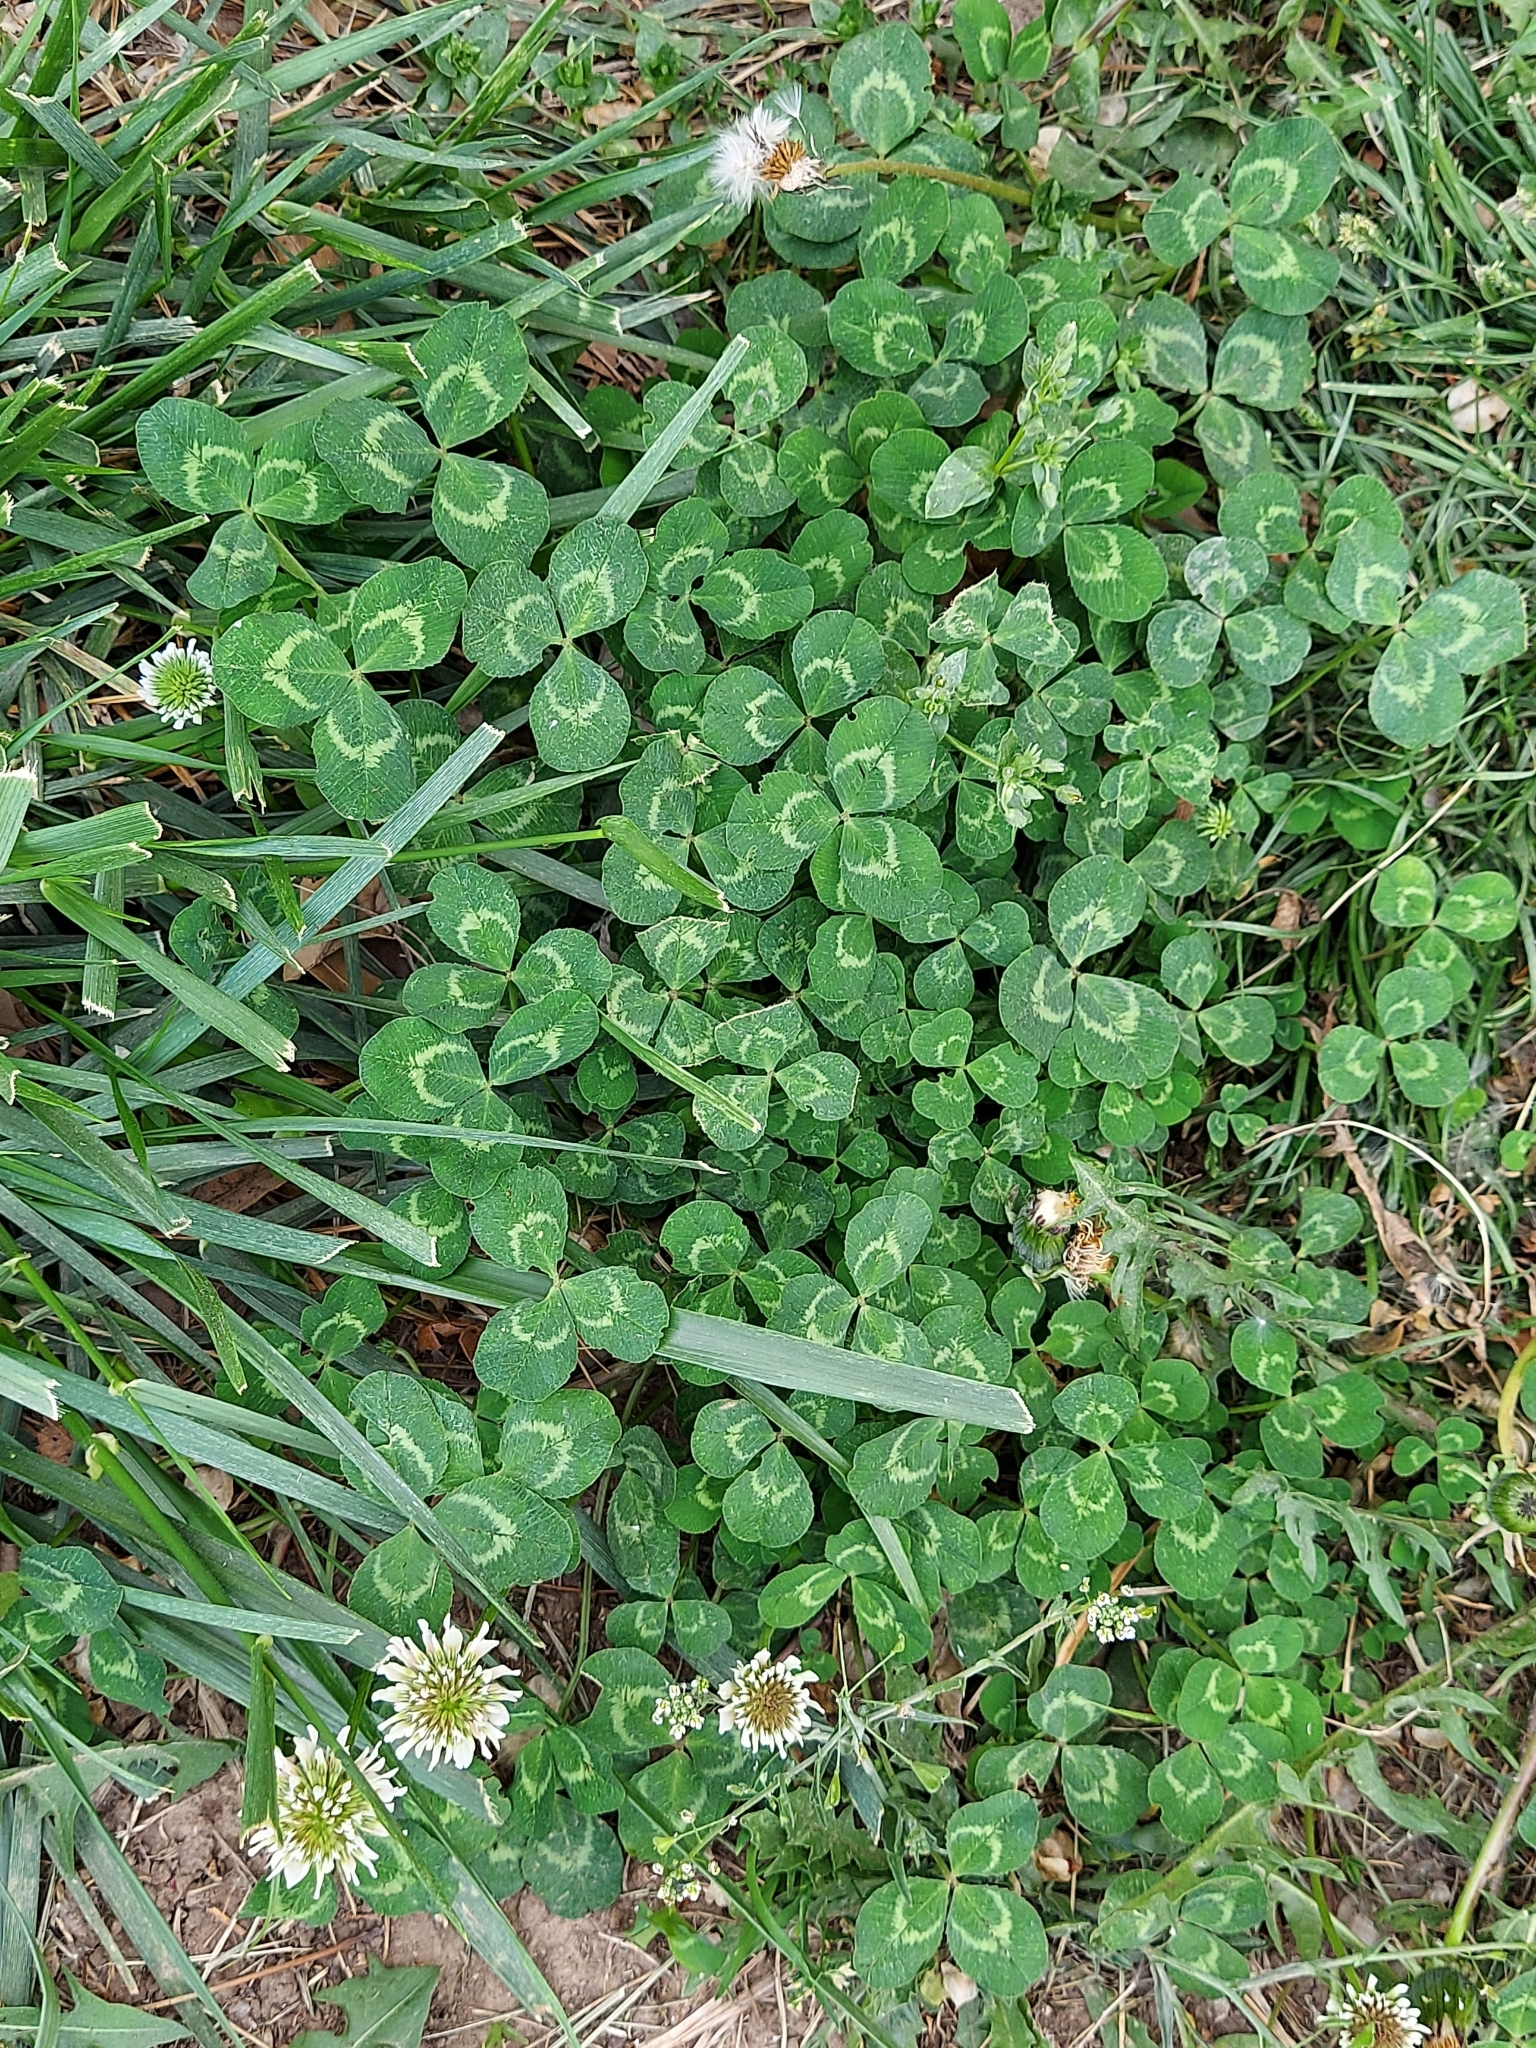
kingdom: Plantae
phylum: Tracheophyta
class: Magnoliopsida
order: Fabales
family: Fabaceae
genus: Trifolium
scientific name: Trifolium repens
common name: White clover
